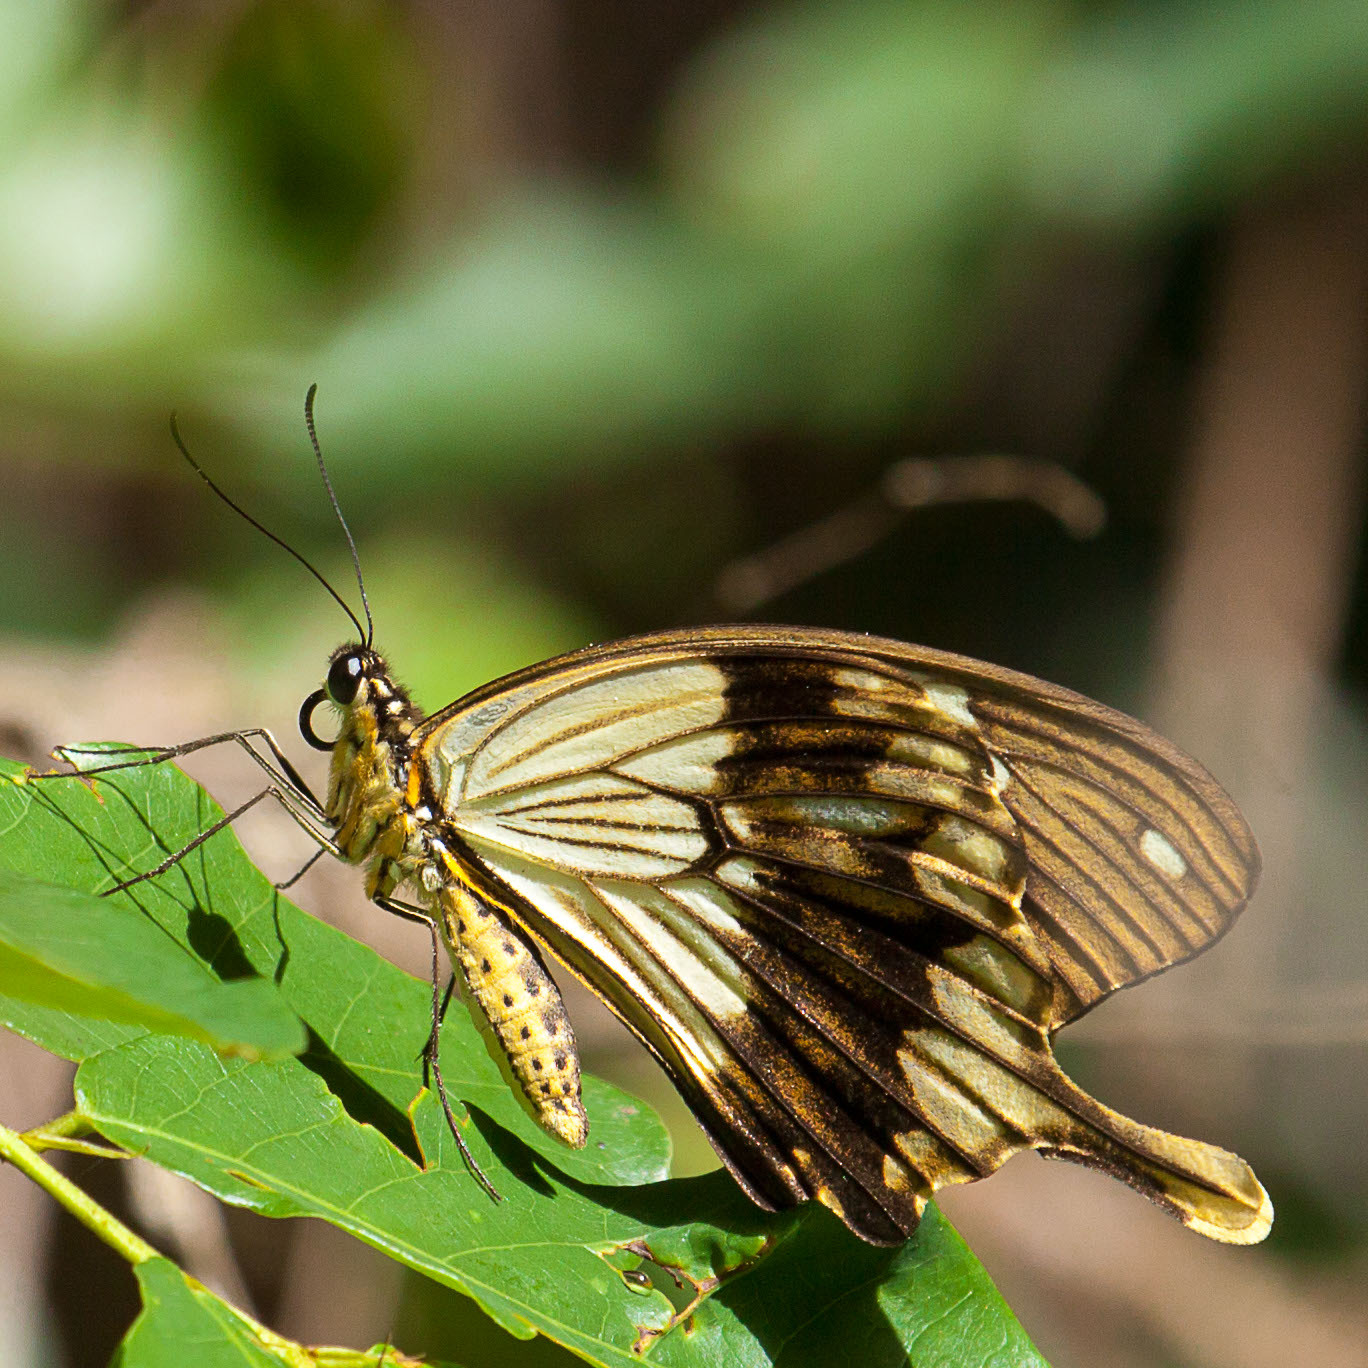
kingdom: Animalia
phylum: Arthropoda
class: Insecta
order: Lepidoptera
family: Papilionidae
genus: Papilio
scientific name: Papilio dardanus
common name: Flying handkerchief
